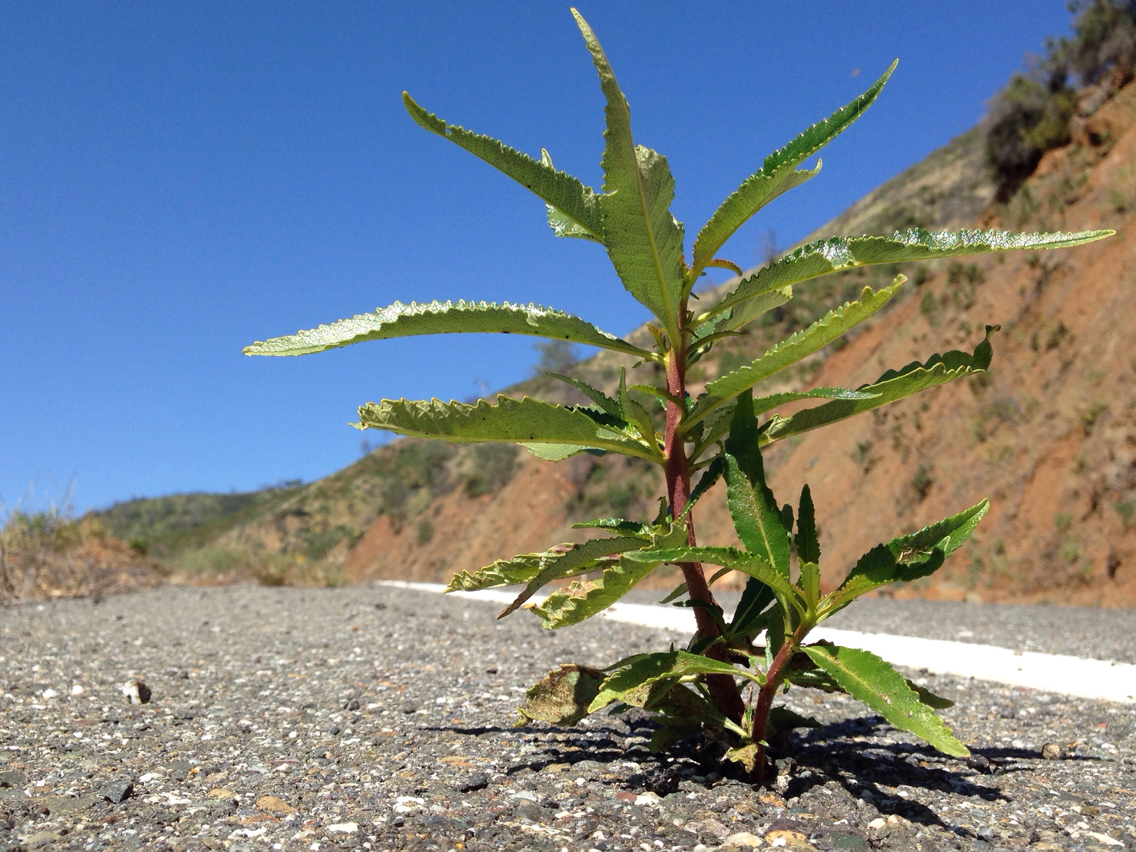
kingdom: Plantae
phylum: Tracheophyta
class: Magnoliopsida
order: Boraginales
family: Namaceae
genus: Eriodictyon
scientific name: Eriodictyon californicum
